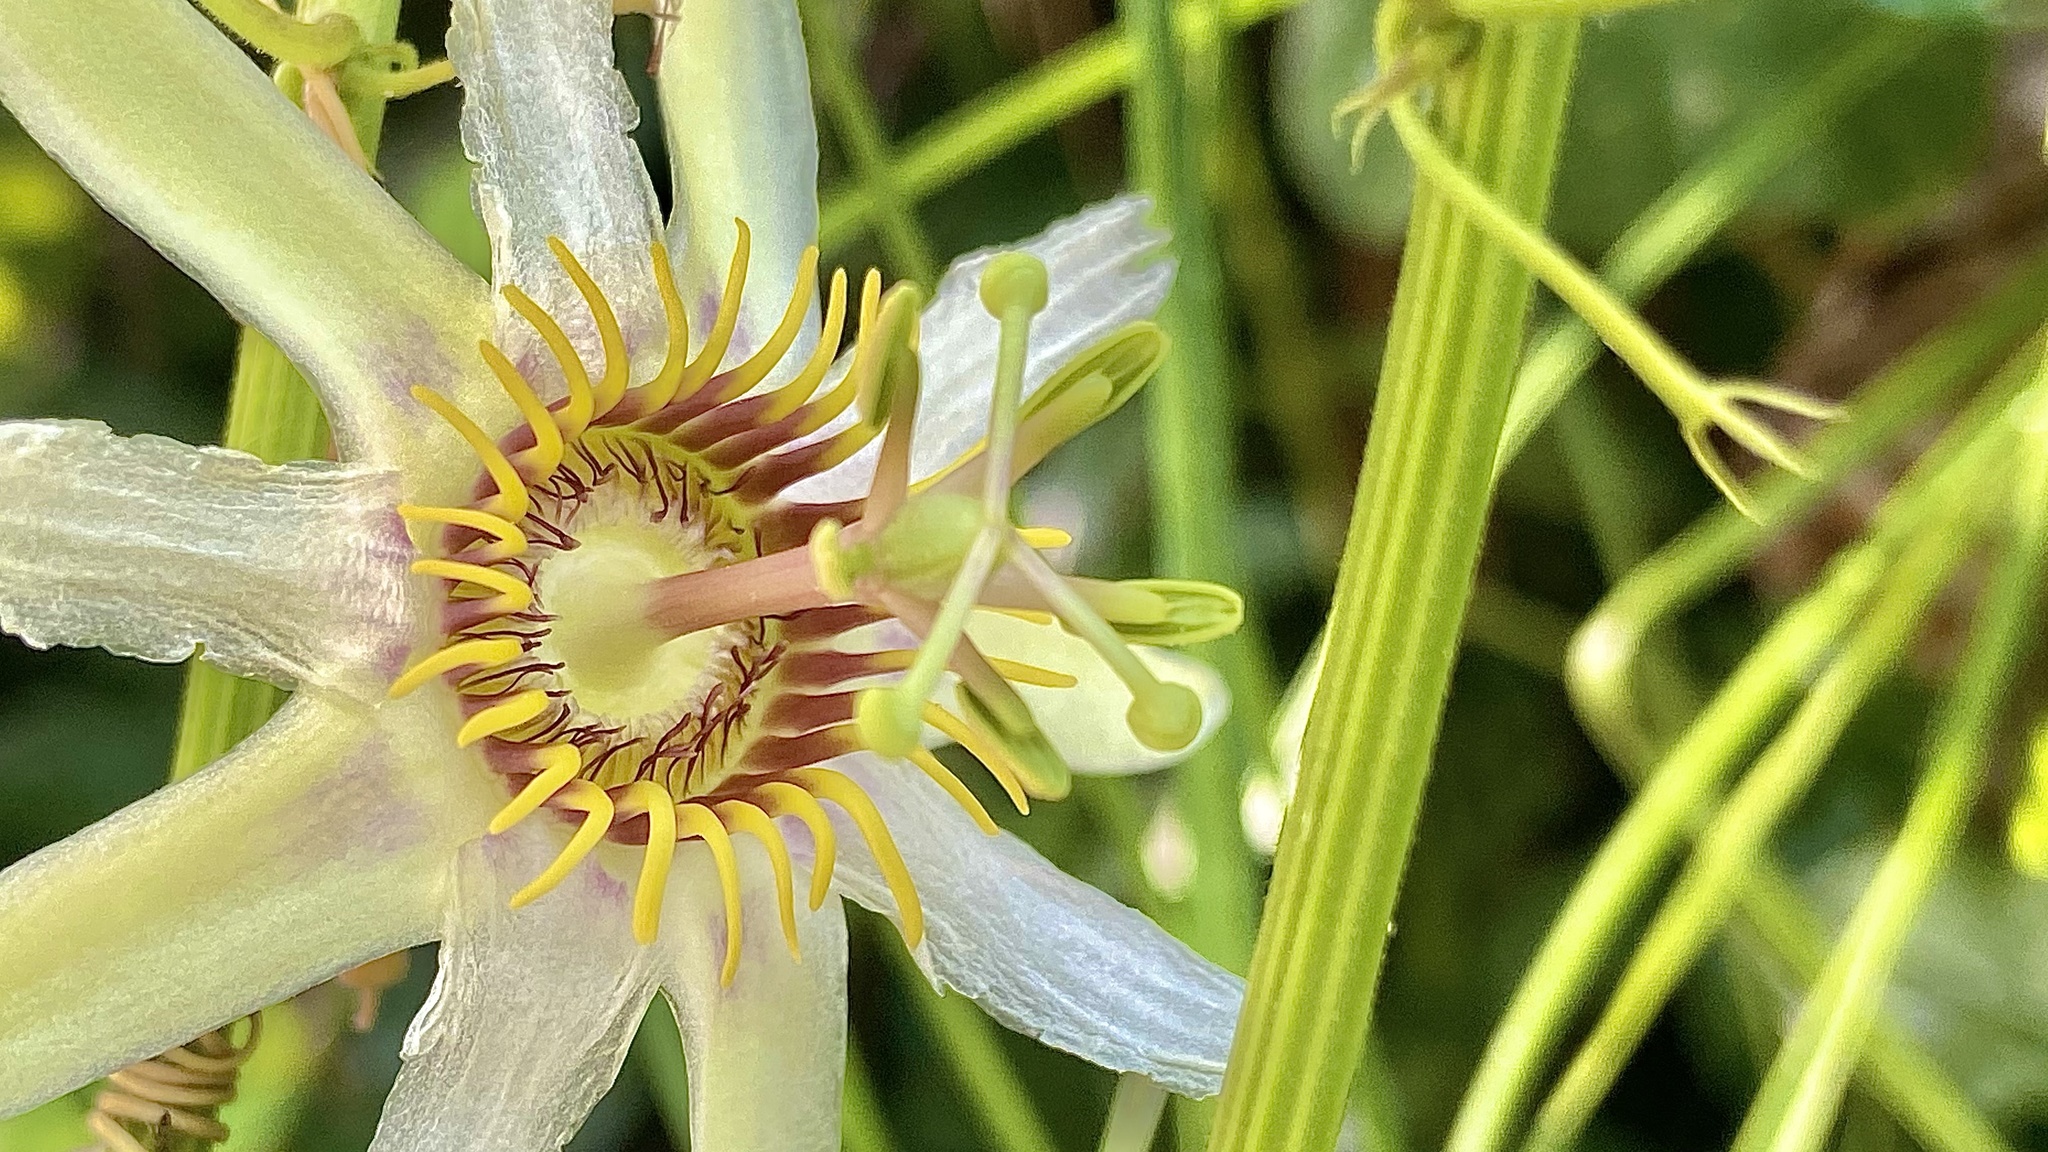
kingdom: Plantae
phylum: Tracheophyta
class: Magnoliopsida
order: Malpighiales
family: Passifloraceae
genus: Passiflora
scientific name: Passiflora yucatanensis
